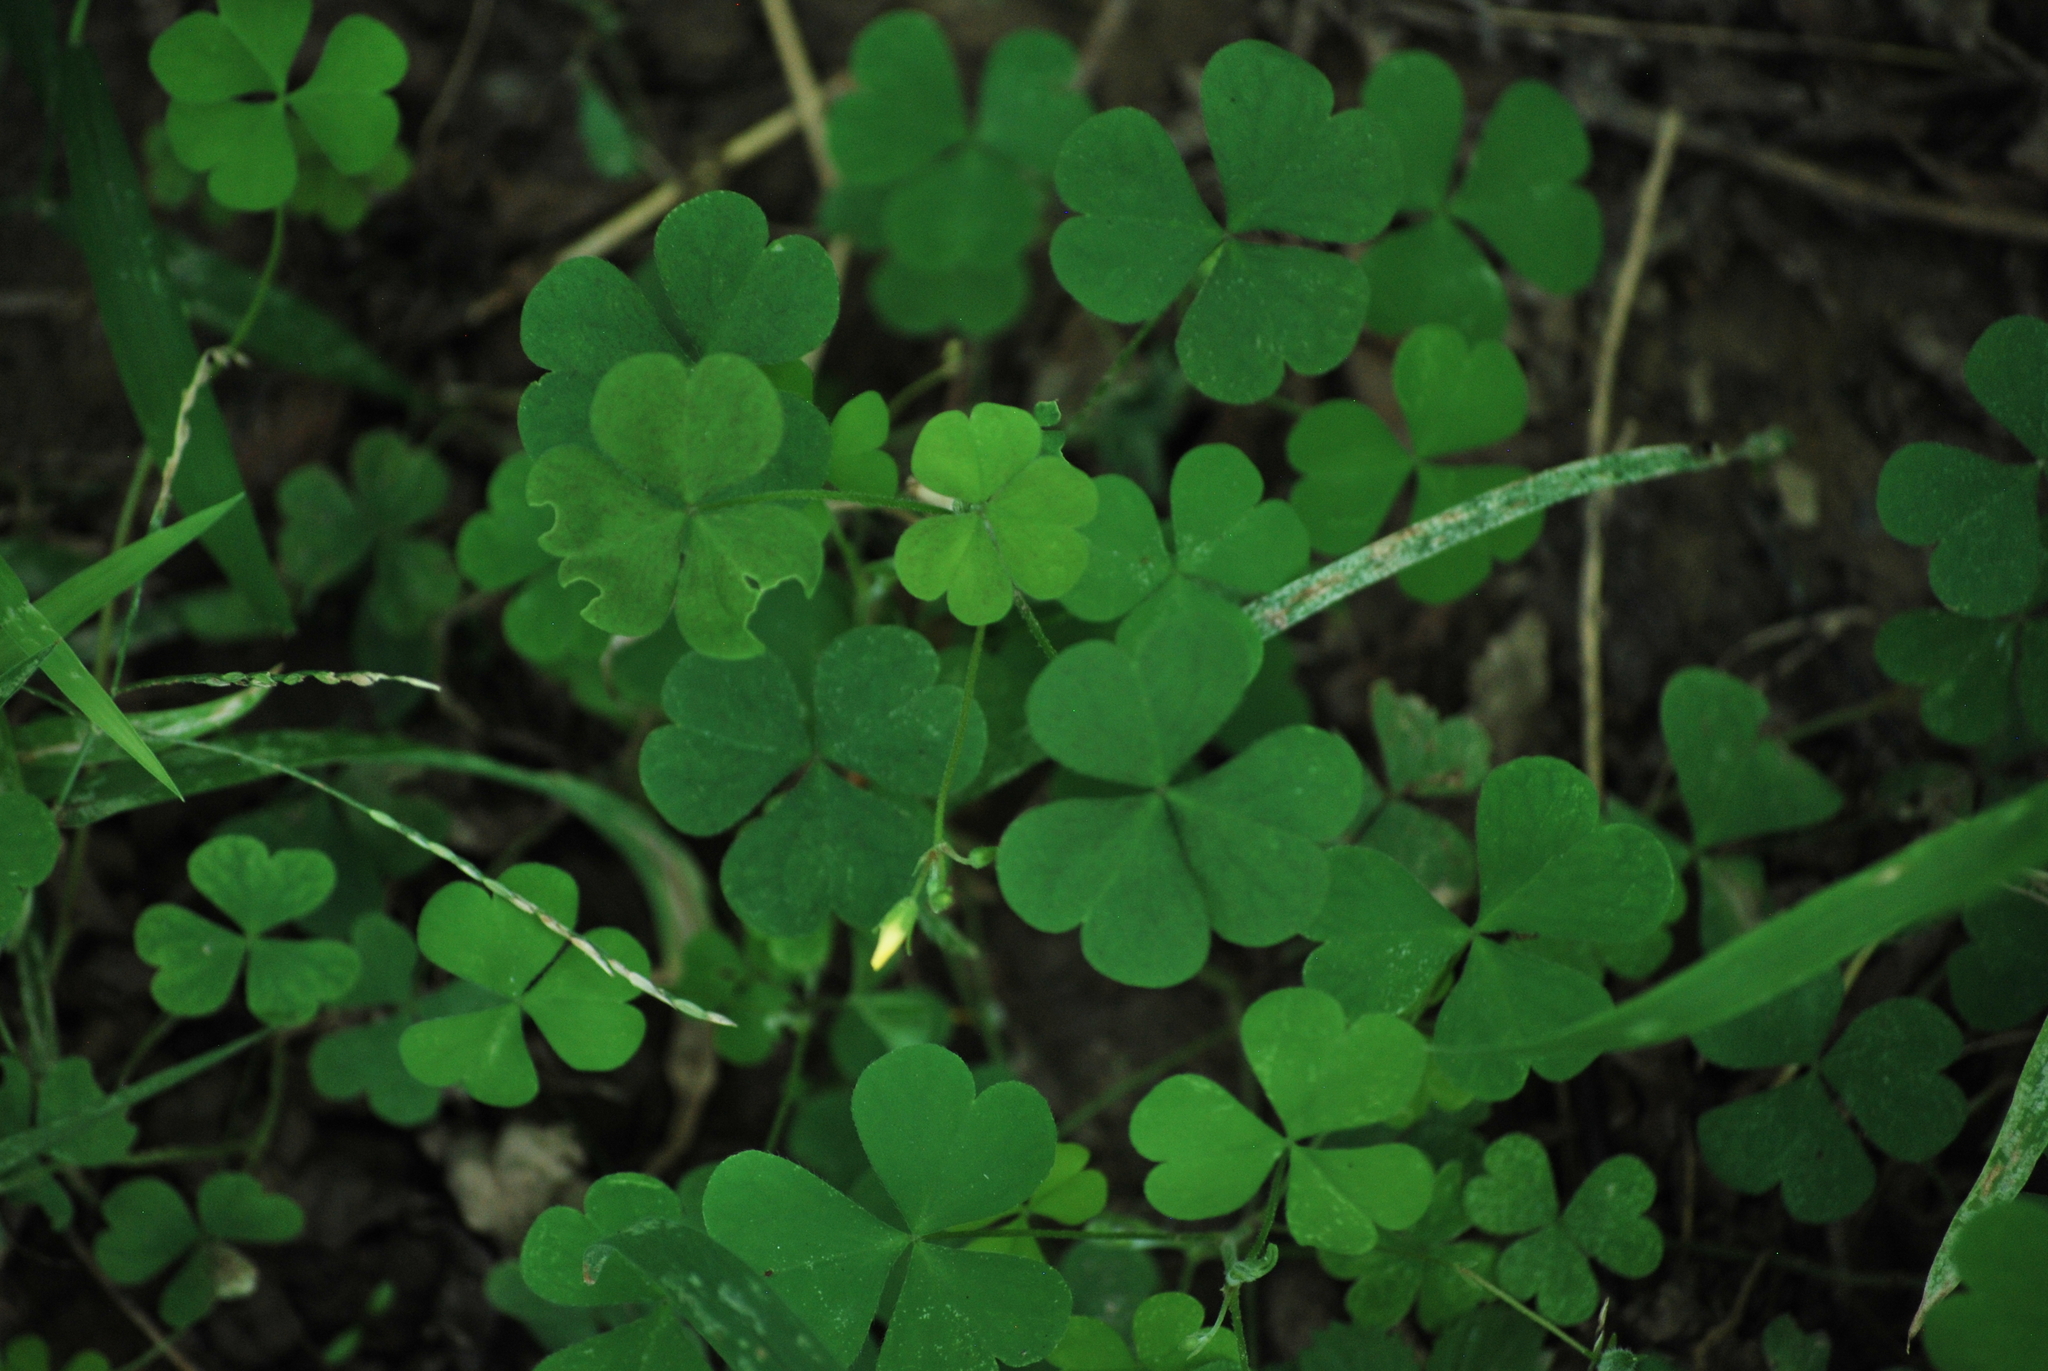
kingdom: Plantae
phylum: Tracheophyta
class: Magnoliopsida
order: Oxalidales
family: Oxalidaceae
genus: Oxalis
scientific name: Oxalis corniculata
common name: Procumbent yellow-sorrel
